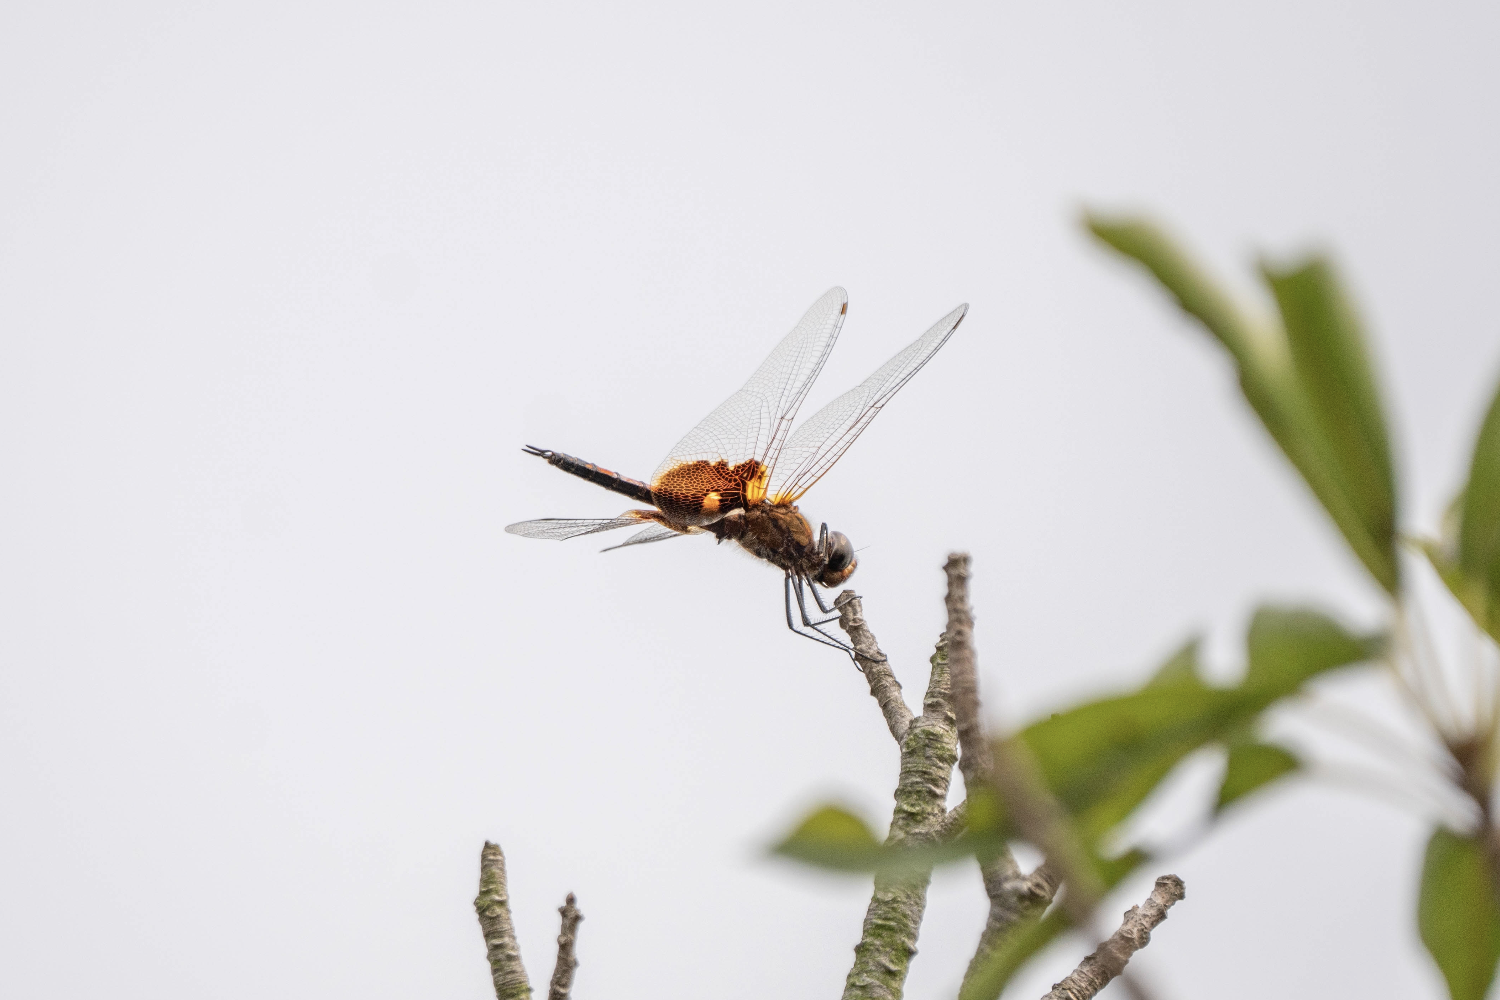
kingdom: Animalia
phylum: Arthropoda
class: Insecta
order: Odonata
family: Libellulidae
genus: Tramea
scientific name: Tramea virginia
